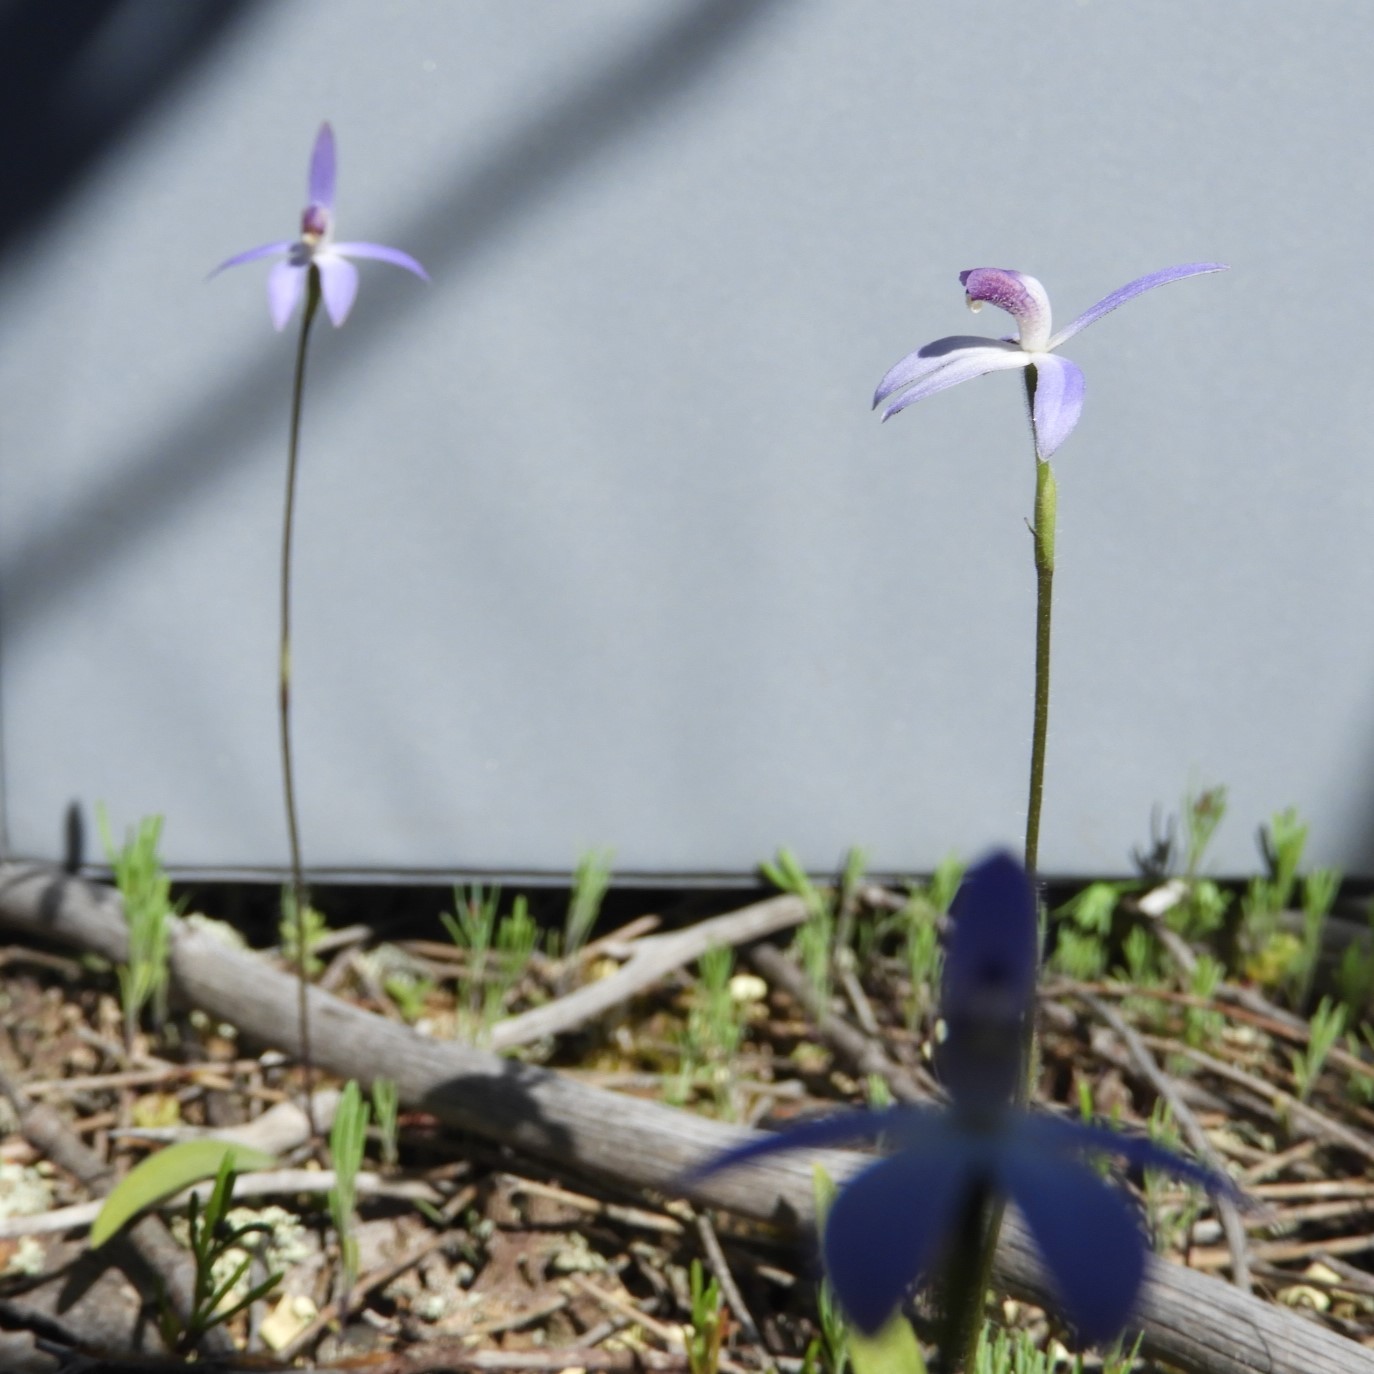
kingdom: Plantae
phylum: Tracheophyta
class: Liliopsida
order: Asparagales
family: Orchidaceae
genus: Caladenia
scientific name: Caladenia amplexans
